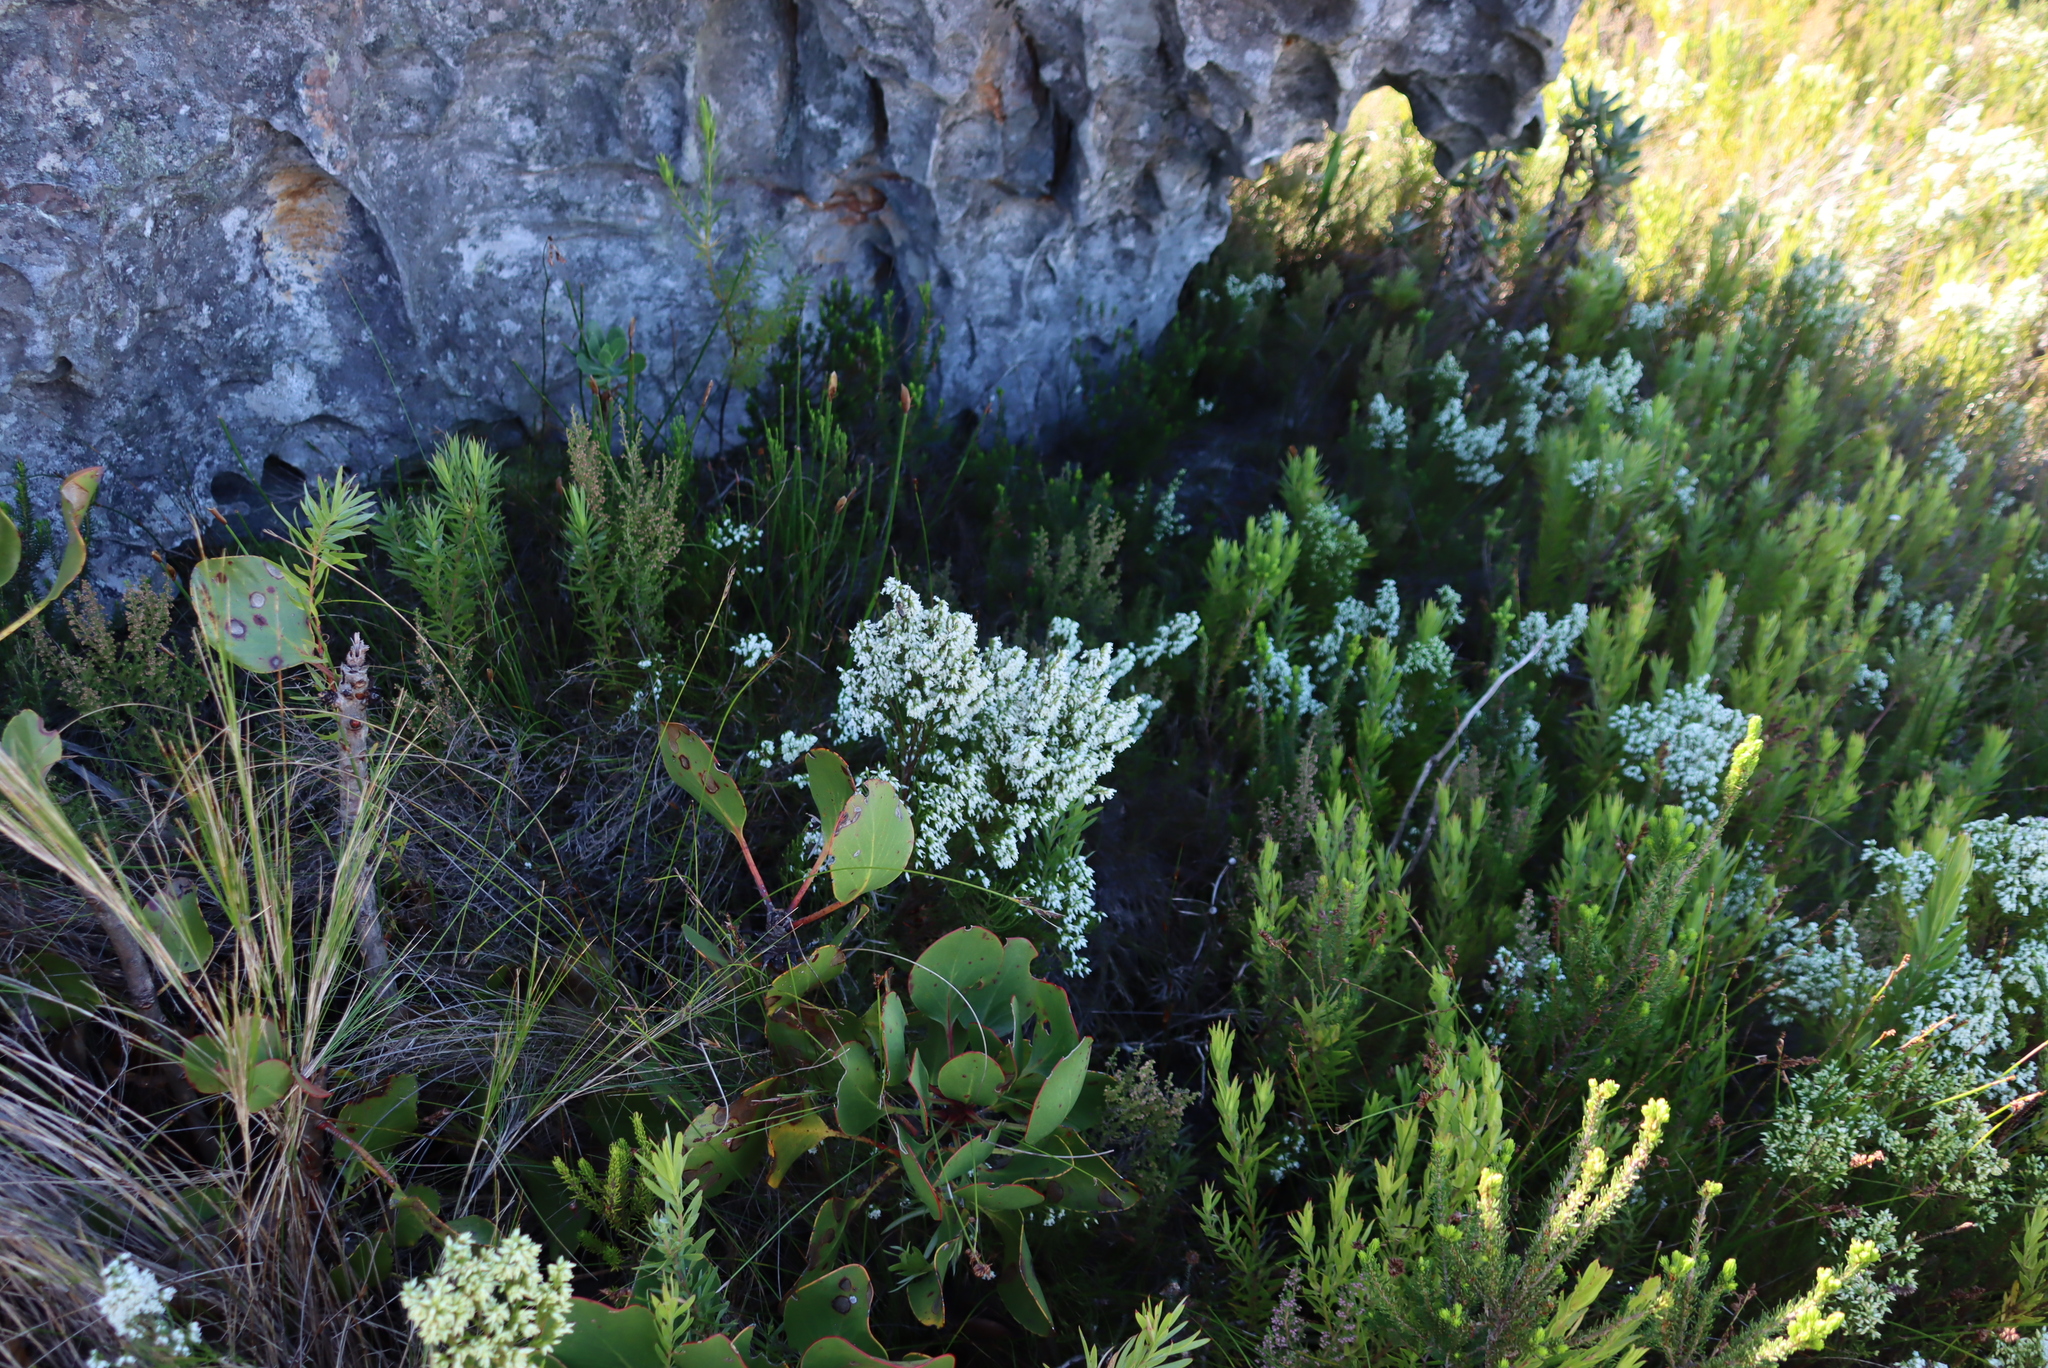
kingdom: Plantae
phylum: Tracheophyta
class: Magnoliopsida
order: Ericales
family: Ericaceae
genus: Erica
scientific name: Erica lutea
